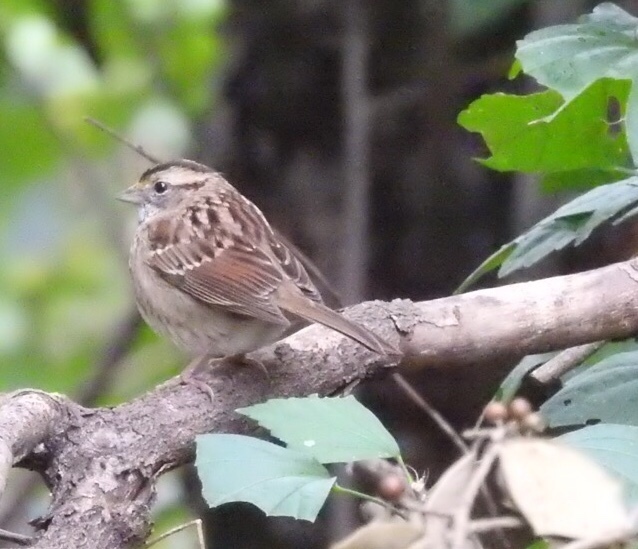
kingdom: Animalia
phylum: Chordata
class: Aves
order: Passeriformes
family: Passerellidae
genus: Zonotrichia
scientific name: Zonotrichia albicollis
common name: White-throated sparrow
